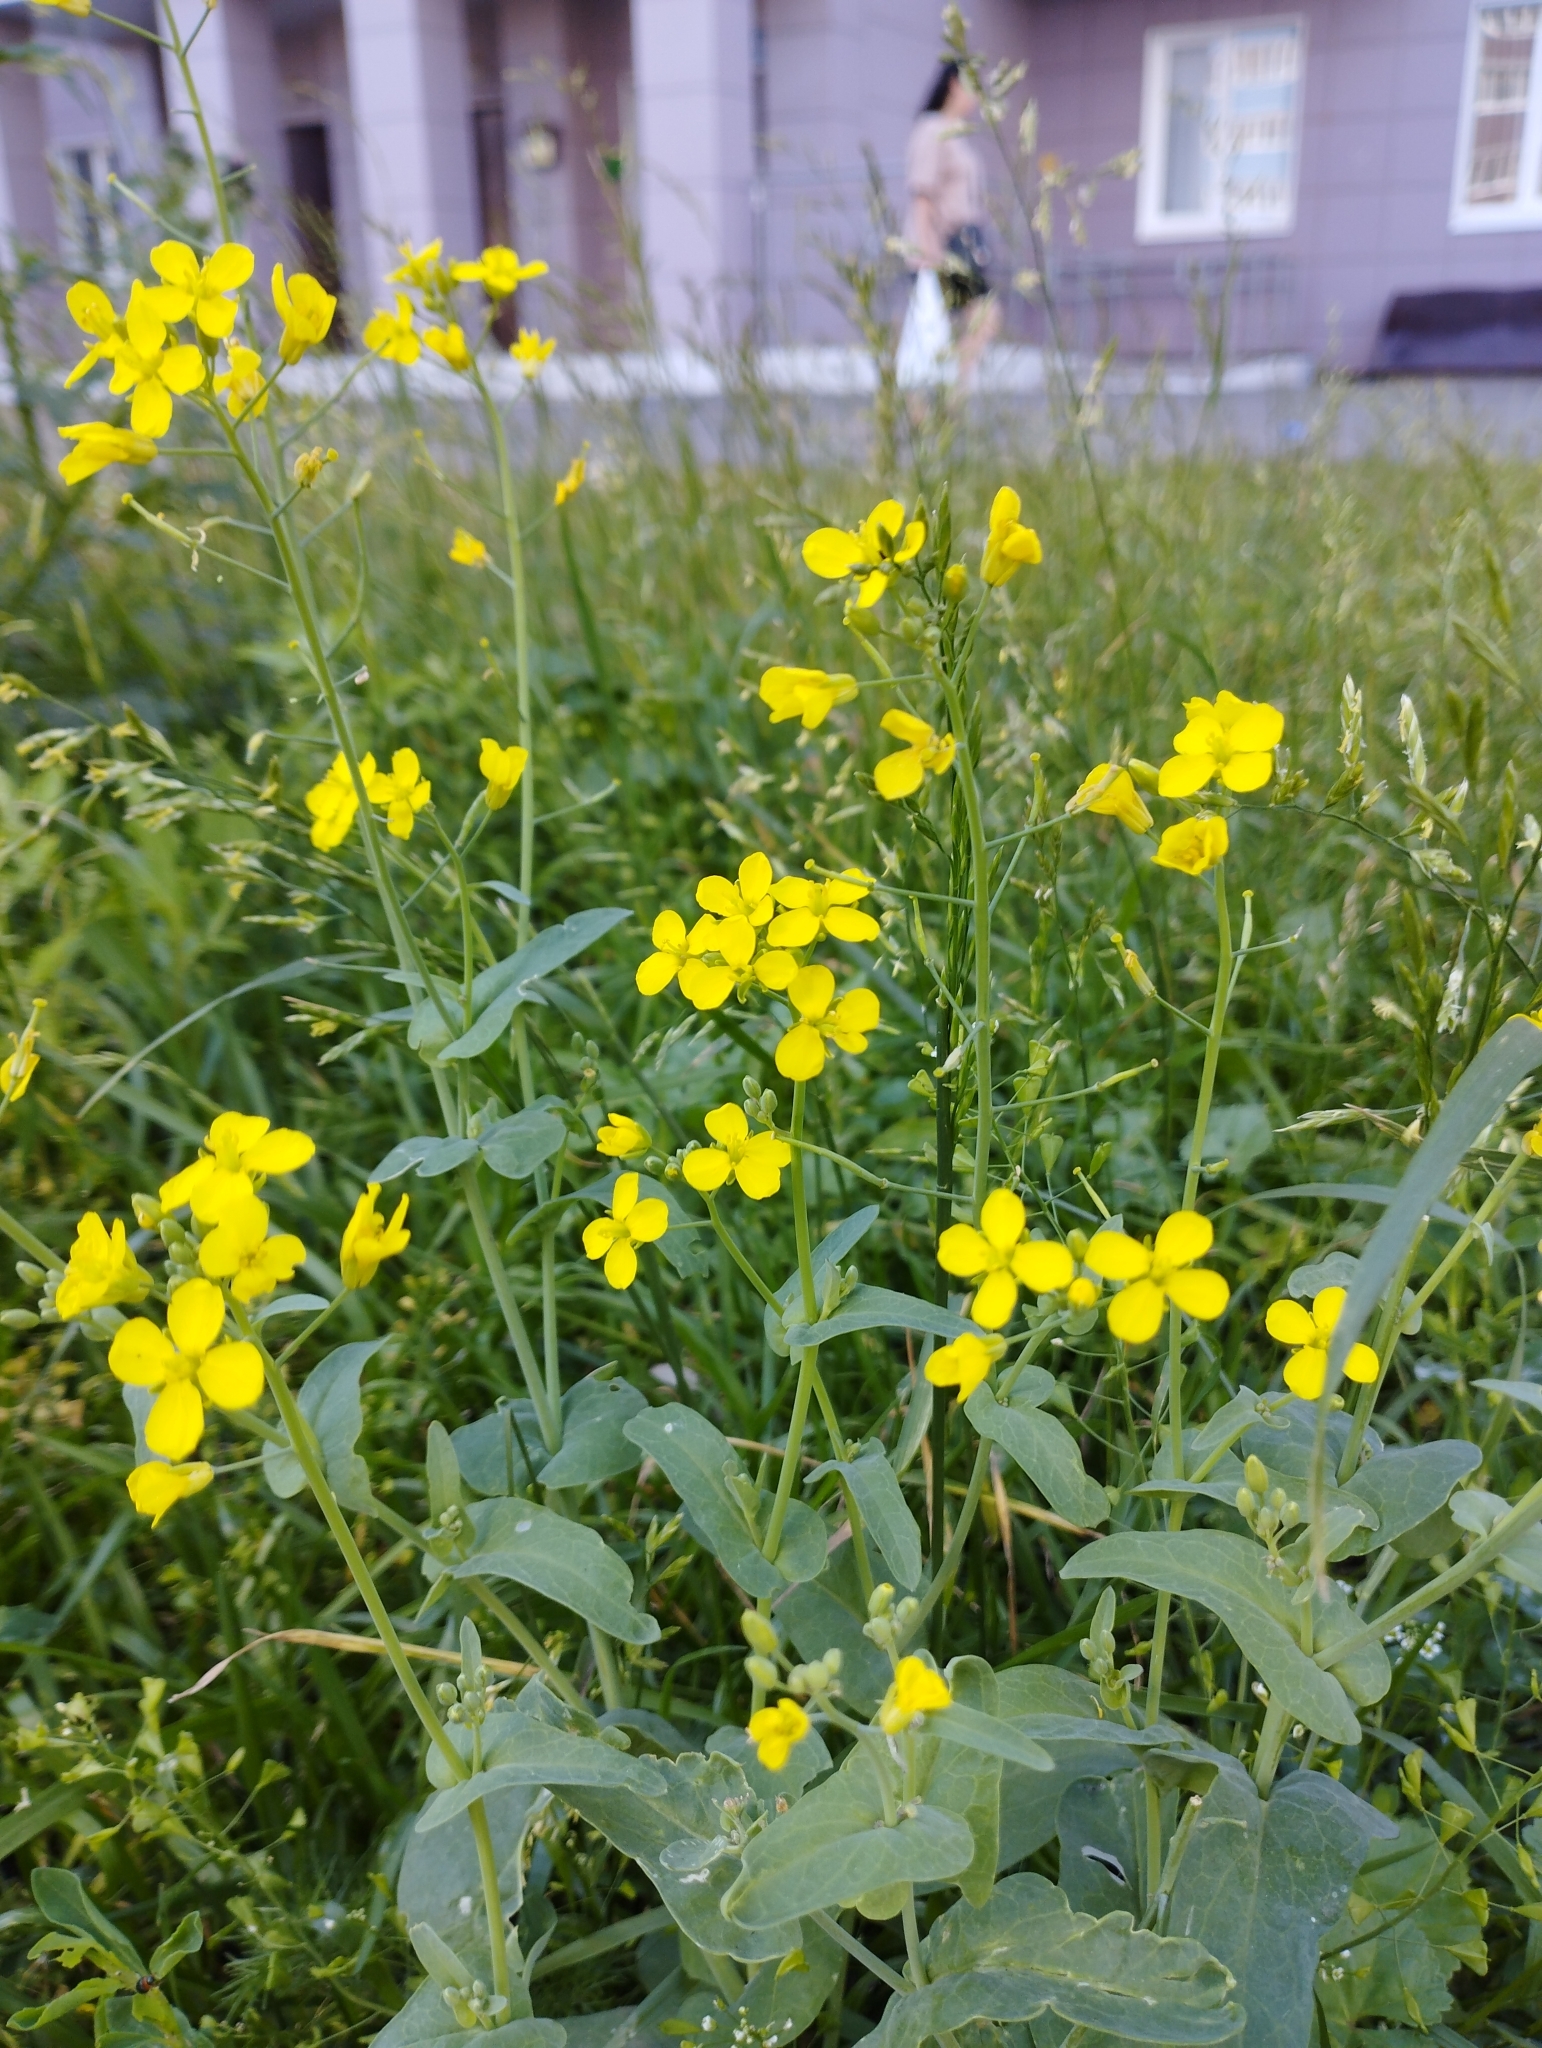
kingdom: Plantae
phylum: Tracheophyta
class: Magnoliopsida
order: Brassicales
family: Brassicaceae
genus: Brassica
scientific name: Brassica rapa
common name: Field mustard
